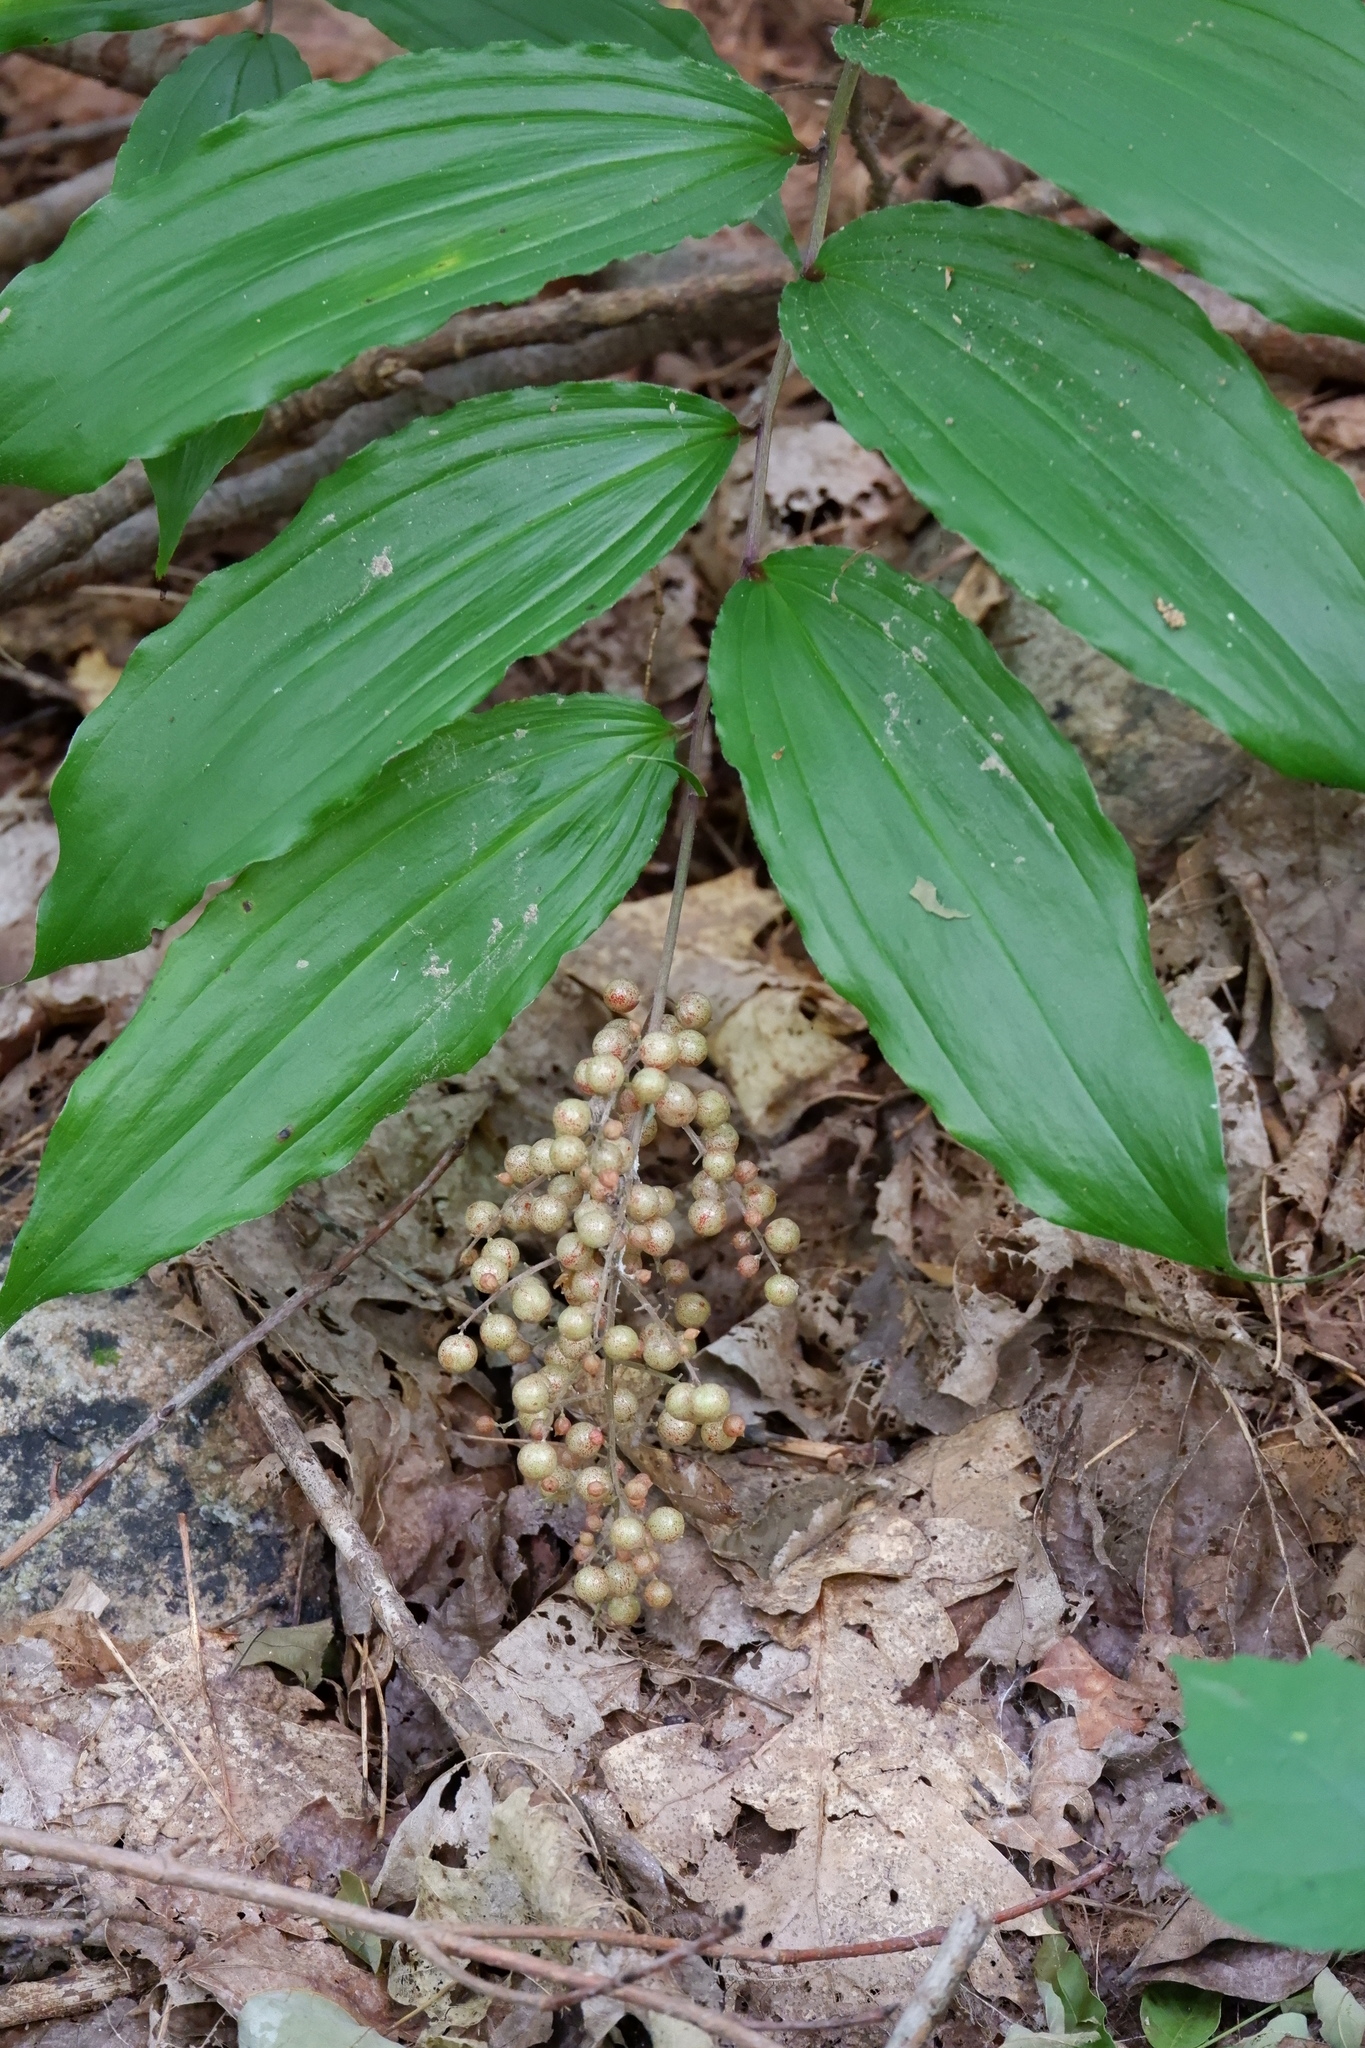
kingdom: Plantae
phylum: Tracheophyta
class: Liliopsida
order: Asparagales
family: Asparagaceae
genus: Maianthemum
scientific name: Maianthemum racemosum
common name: False spikenard
